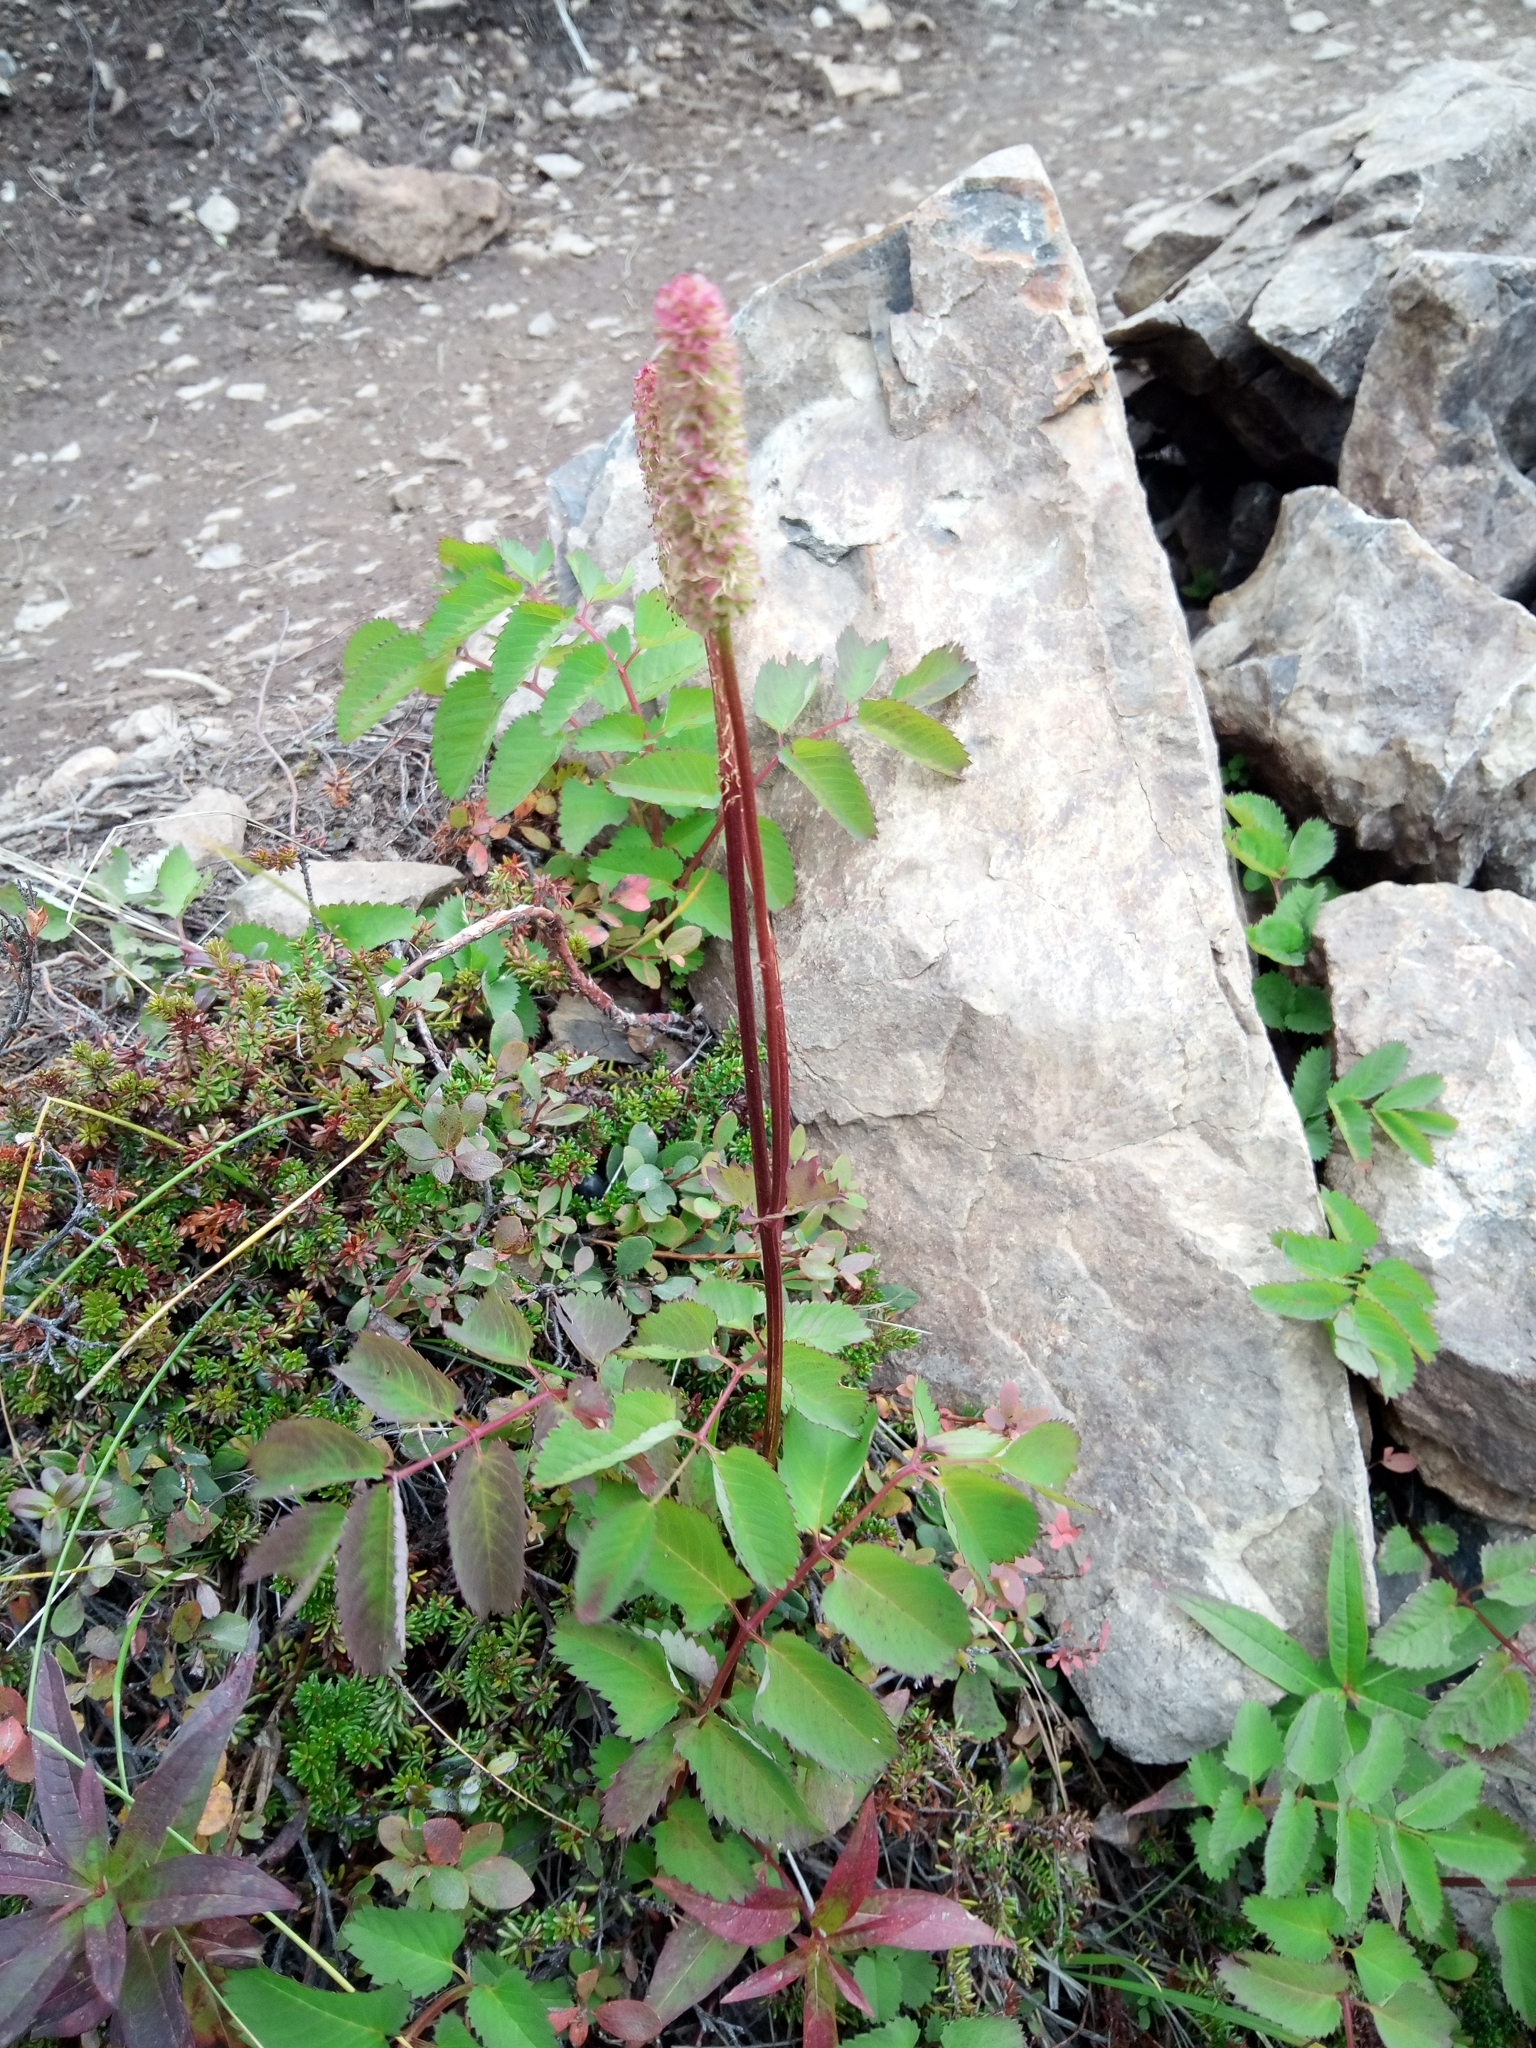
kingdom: Plantae
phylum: Tracheophyta
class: Magnoliopsida
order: Rosales
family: Rosaceae
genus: Sanguisorba
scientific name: Sanguisorba stipulata
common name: Sitka burnet
